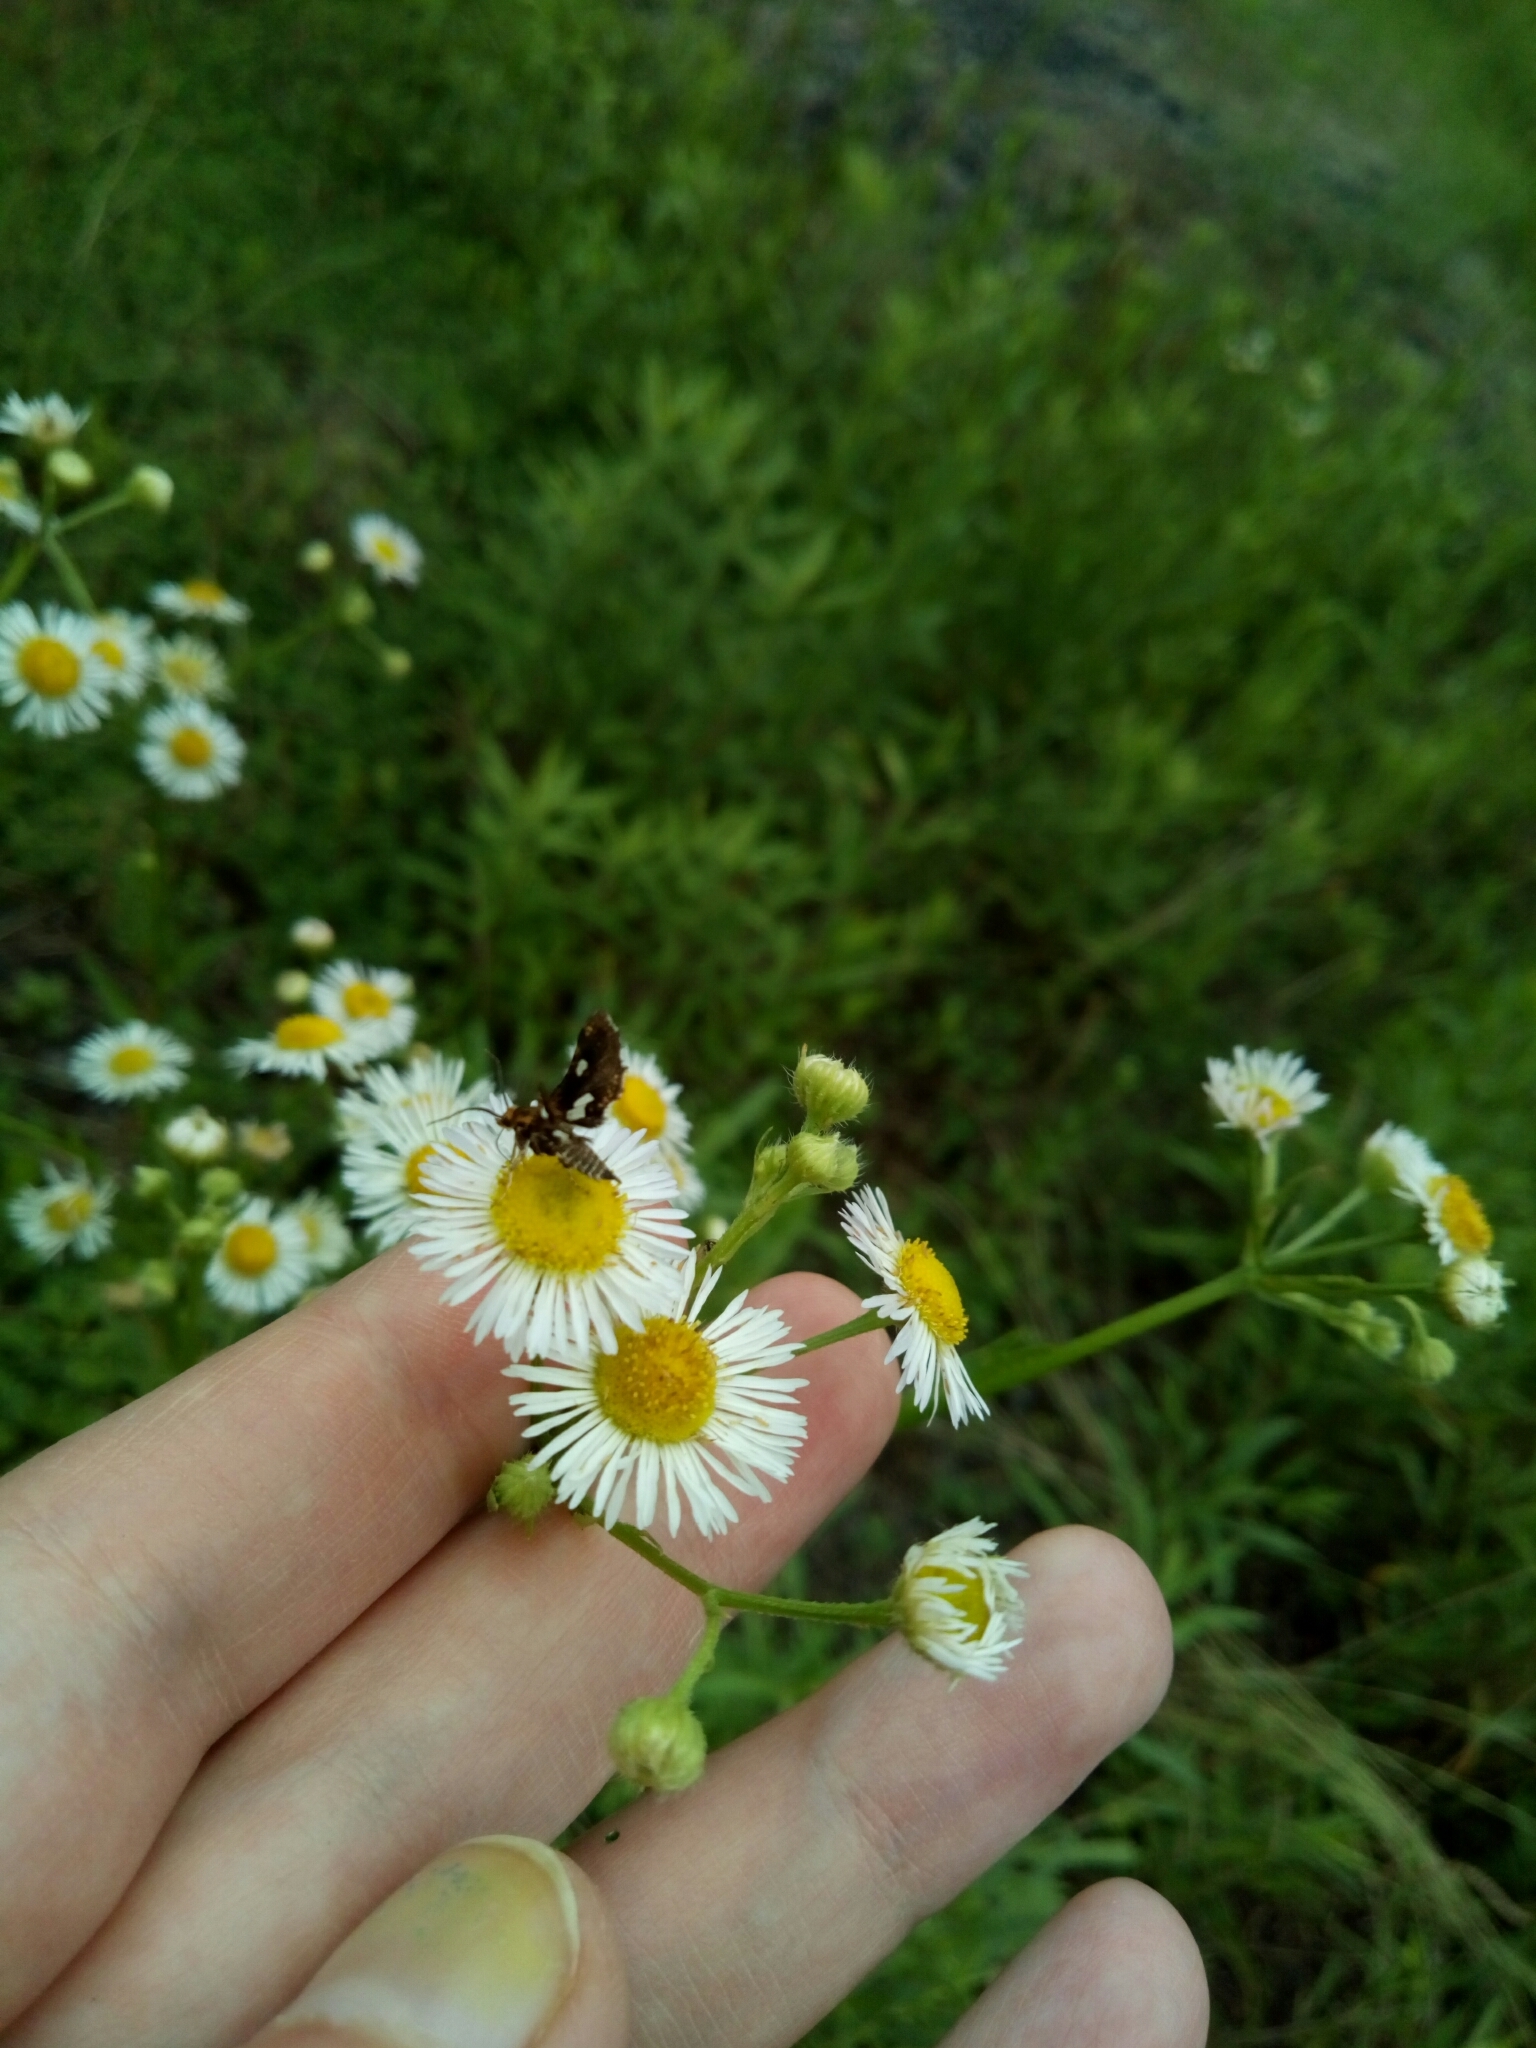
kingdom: Animalia
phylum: Arthropoda
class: Insecta
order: Lepidoptera
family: Thyrididae
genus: Thyris
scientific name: Thyris maculata
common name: Spotted thyris moth
